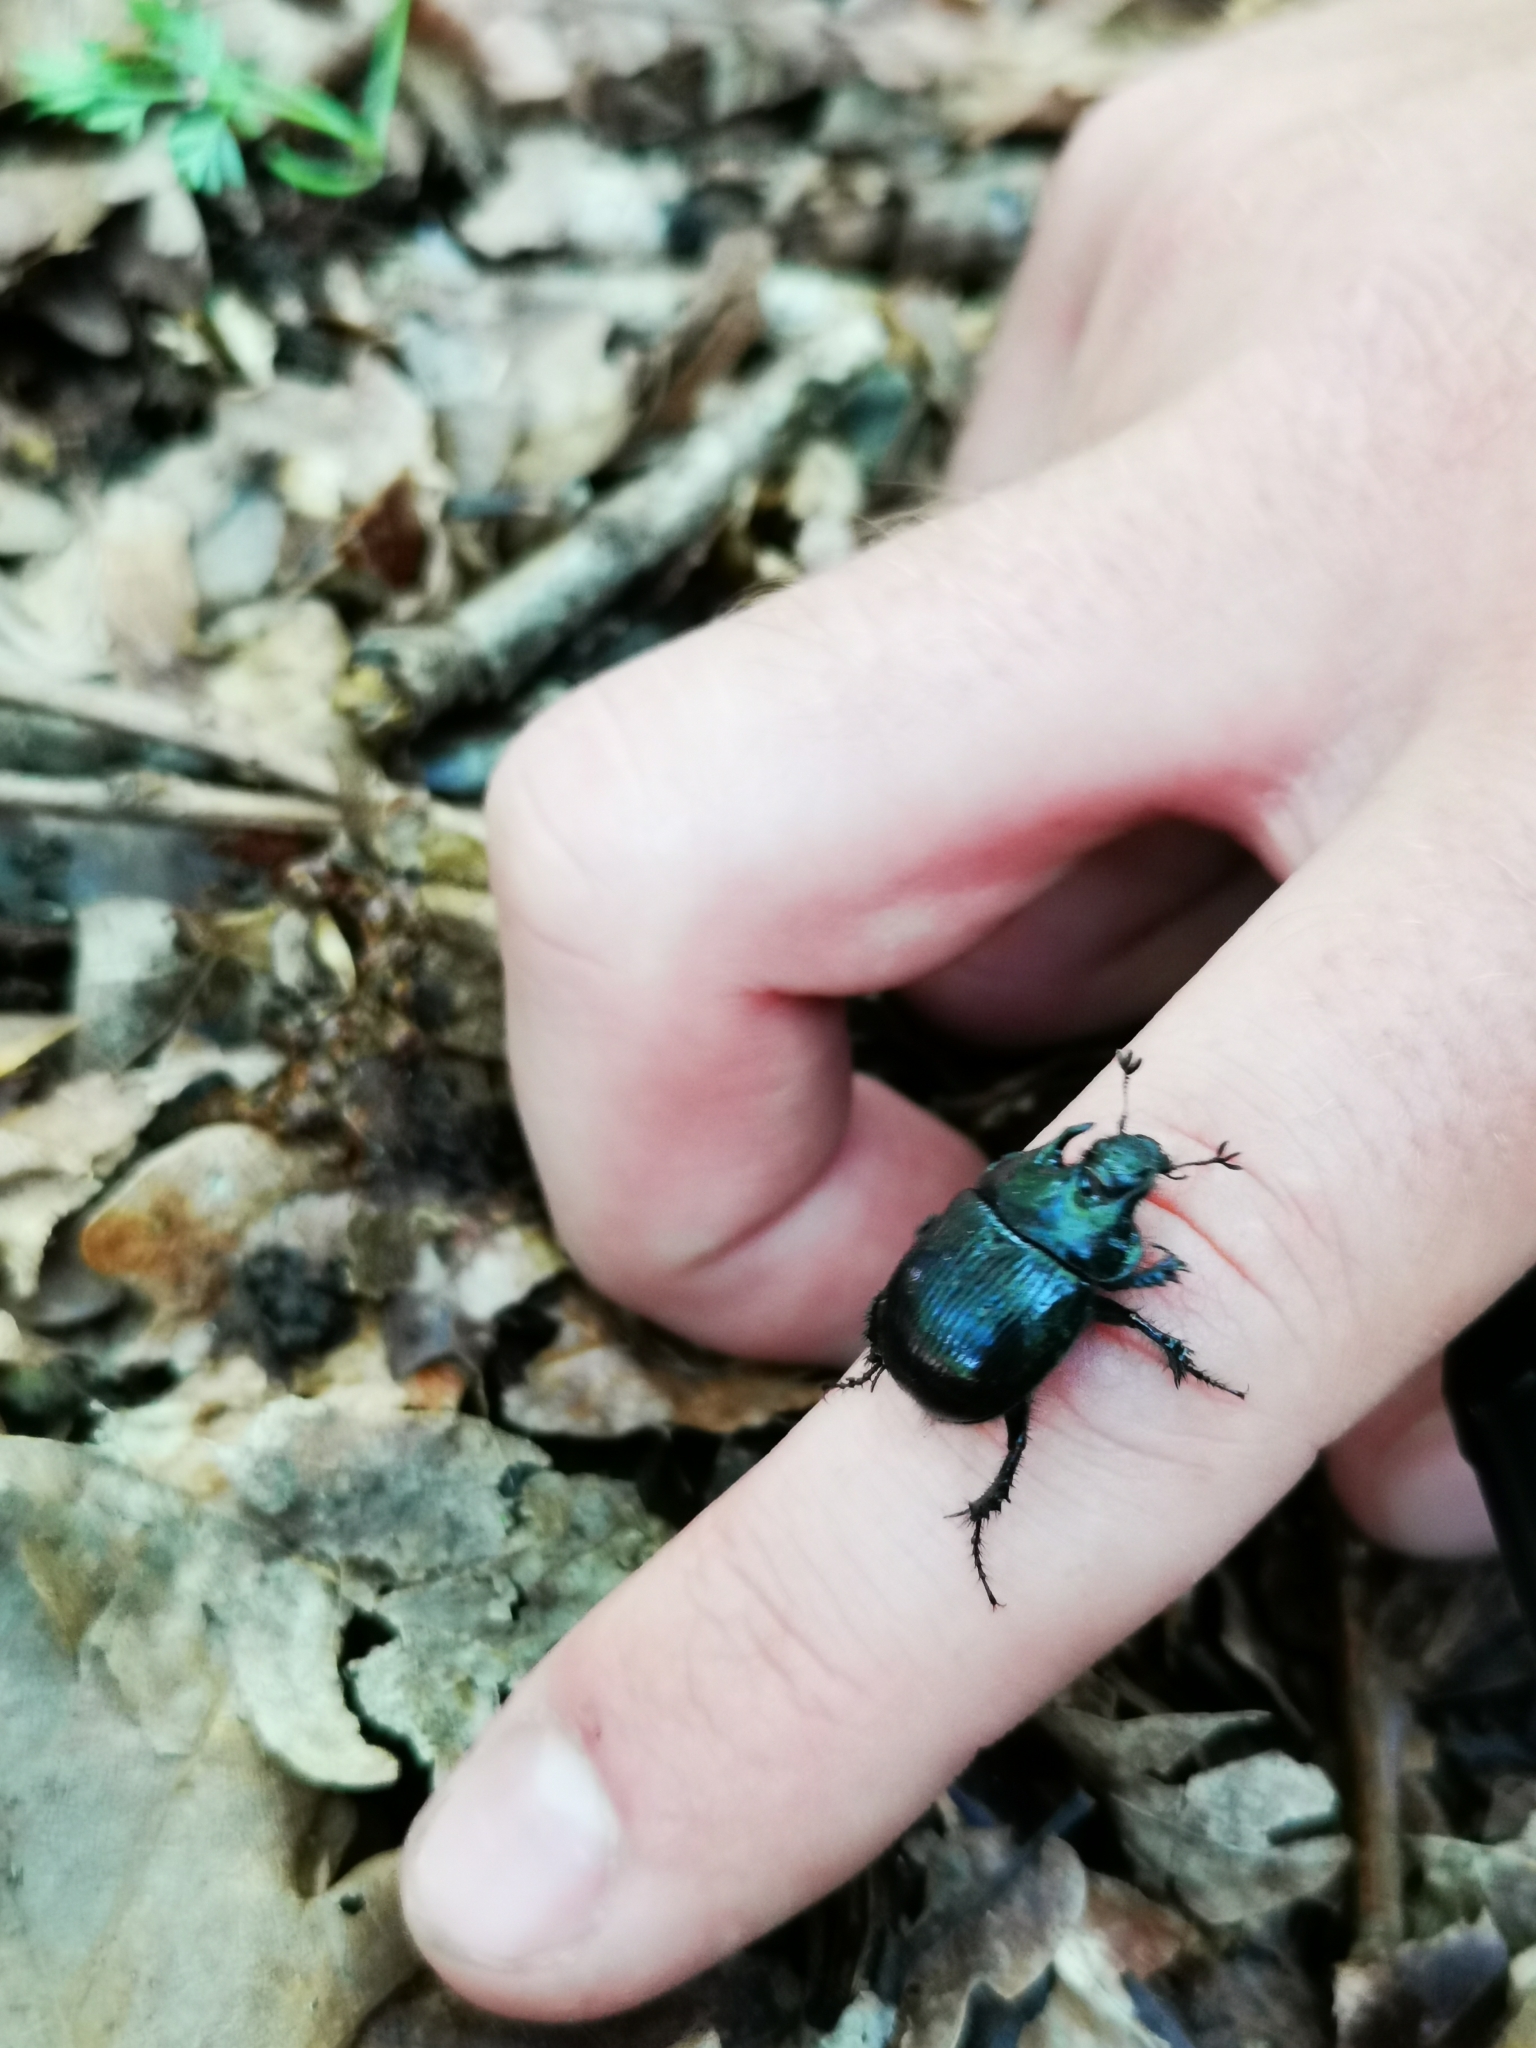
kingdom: Animalia
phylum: Arthropoda
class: Insecta
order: Coleoptera
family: Geotrupidae
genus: Typhaeus
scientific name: Typhaeus typhoeus
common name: Minotaur beetle
